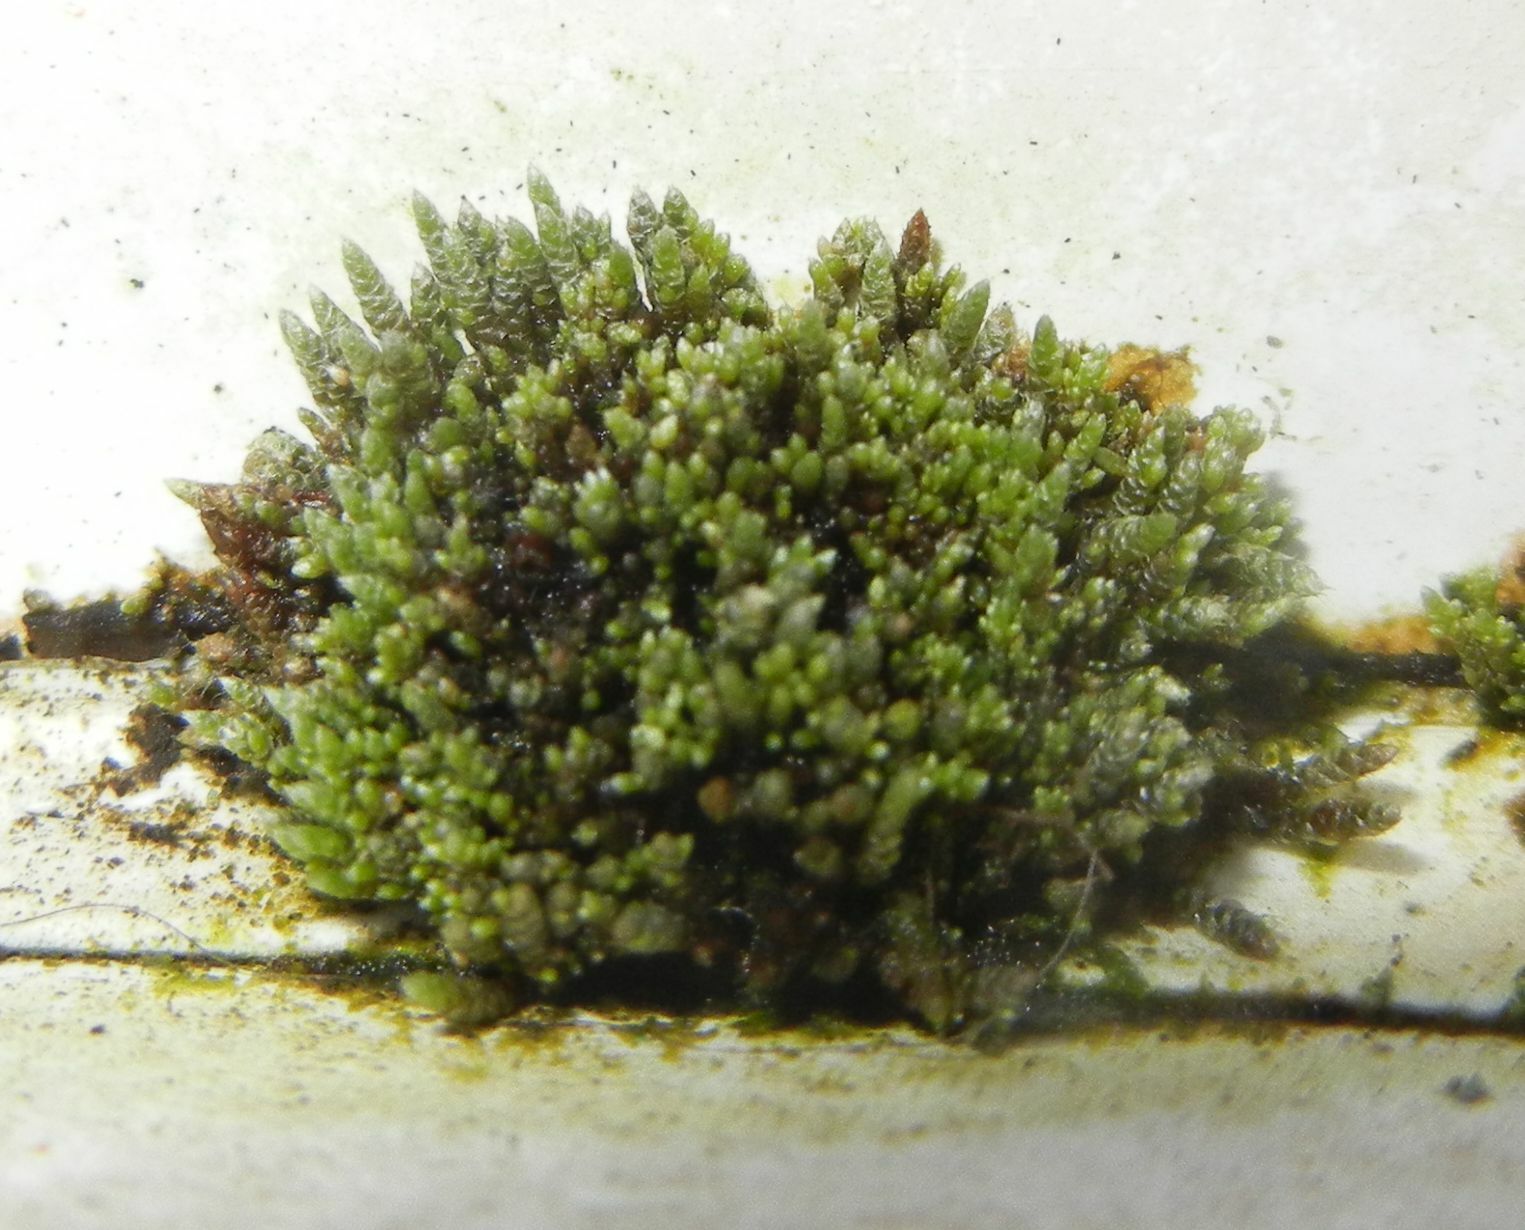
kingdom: Plantae
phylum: Bryophyta
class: Bryopsida
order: Bryales
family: Bryaceae
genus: Bryum
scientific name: Bryum argenteum
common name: Silver-moss
